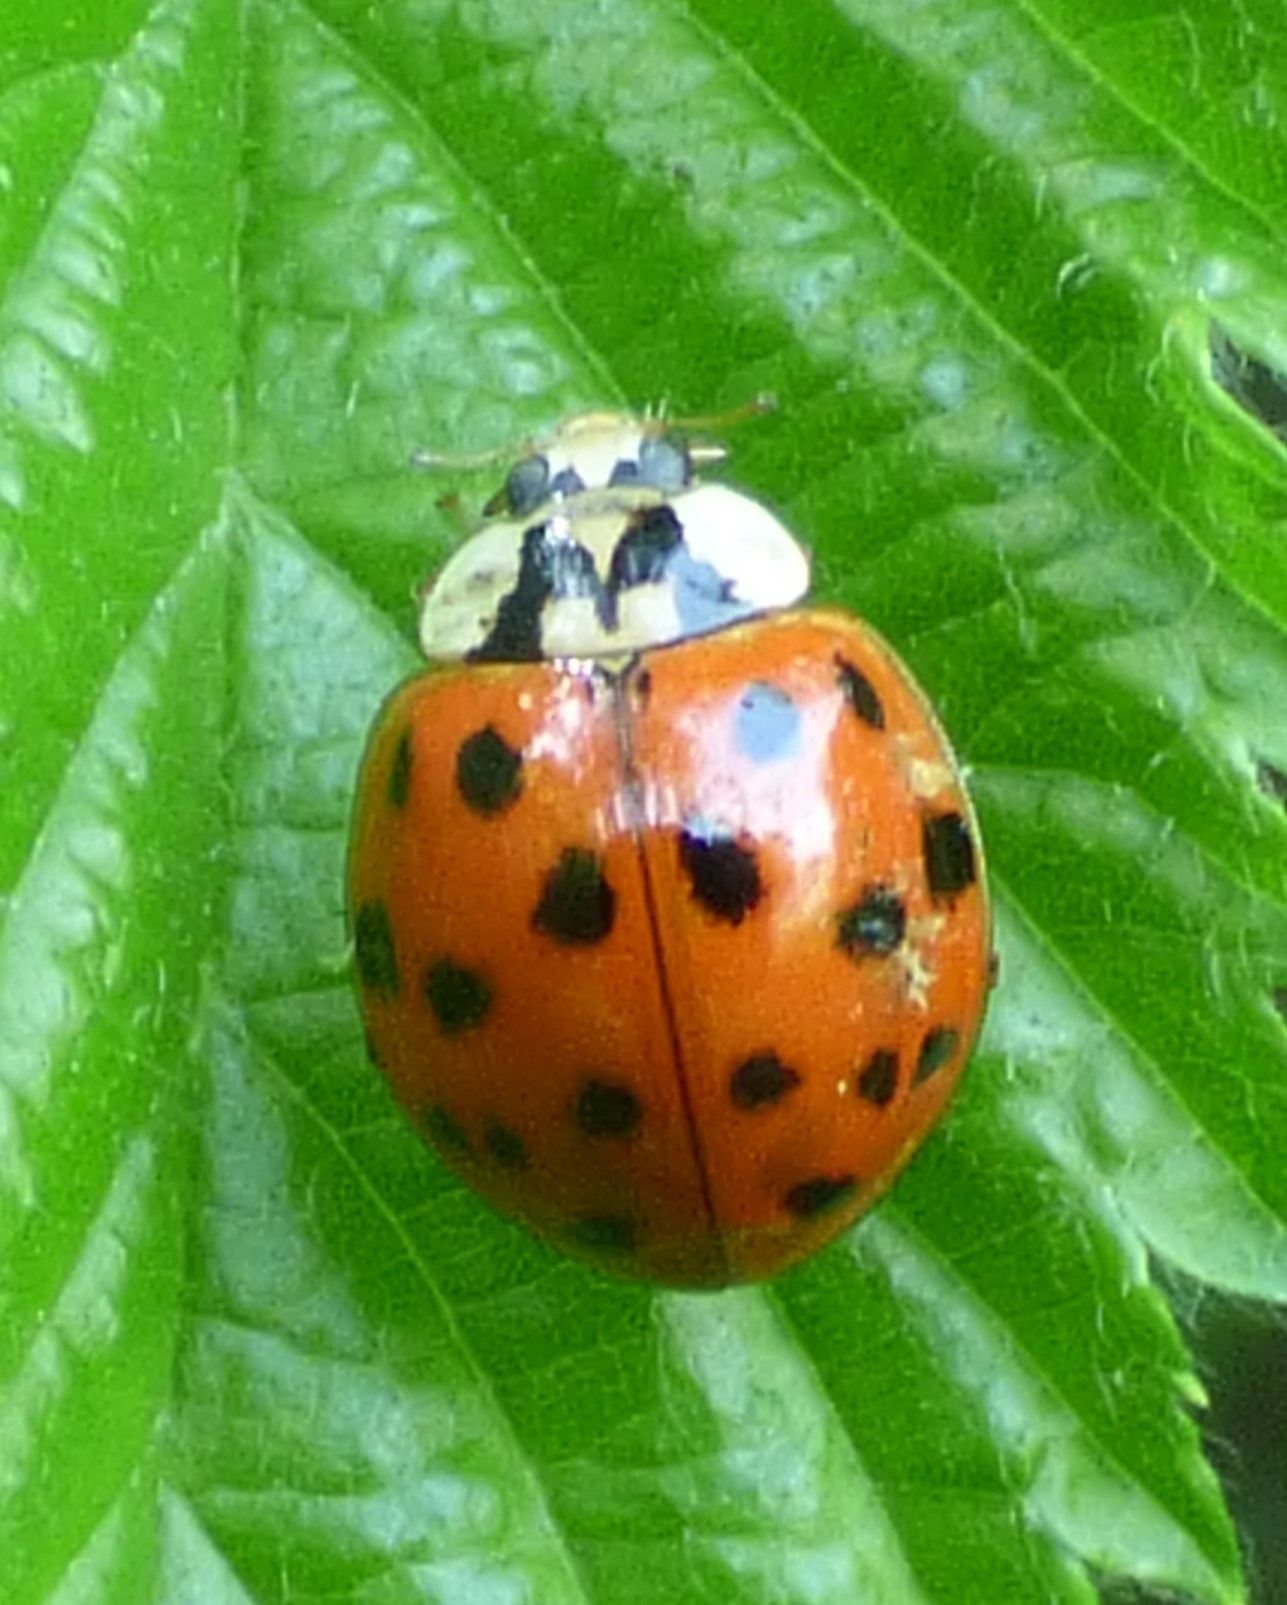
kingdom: Animalia
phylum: Arthropoda
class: Insecta
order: Coleoptera
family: Coccinellidae
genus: Harmonia
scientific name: Harmonia axyridis
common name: Harlequin ladybird
